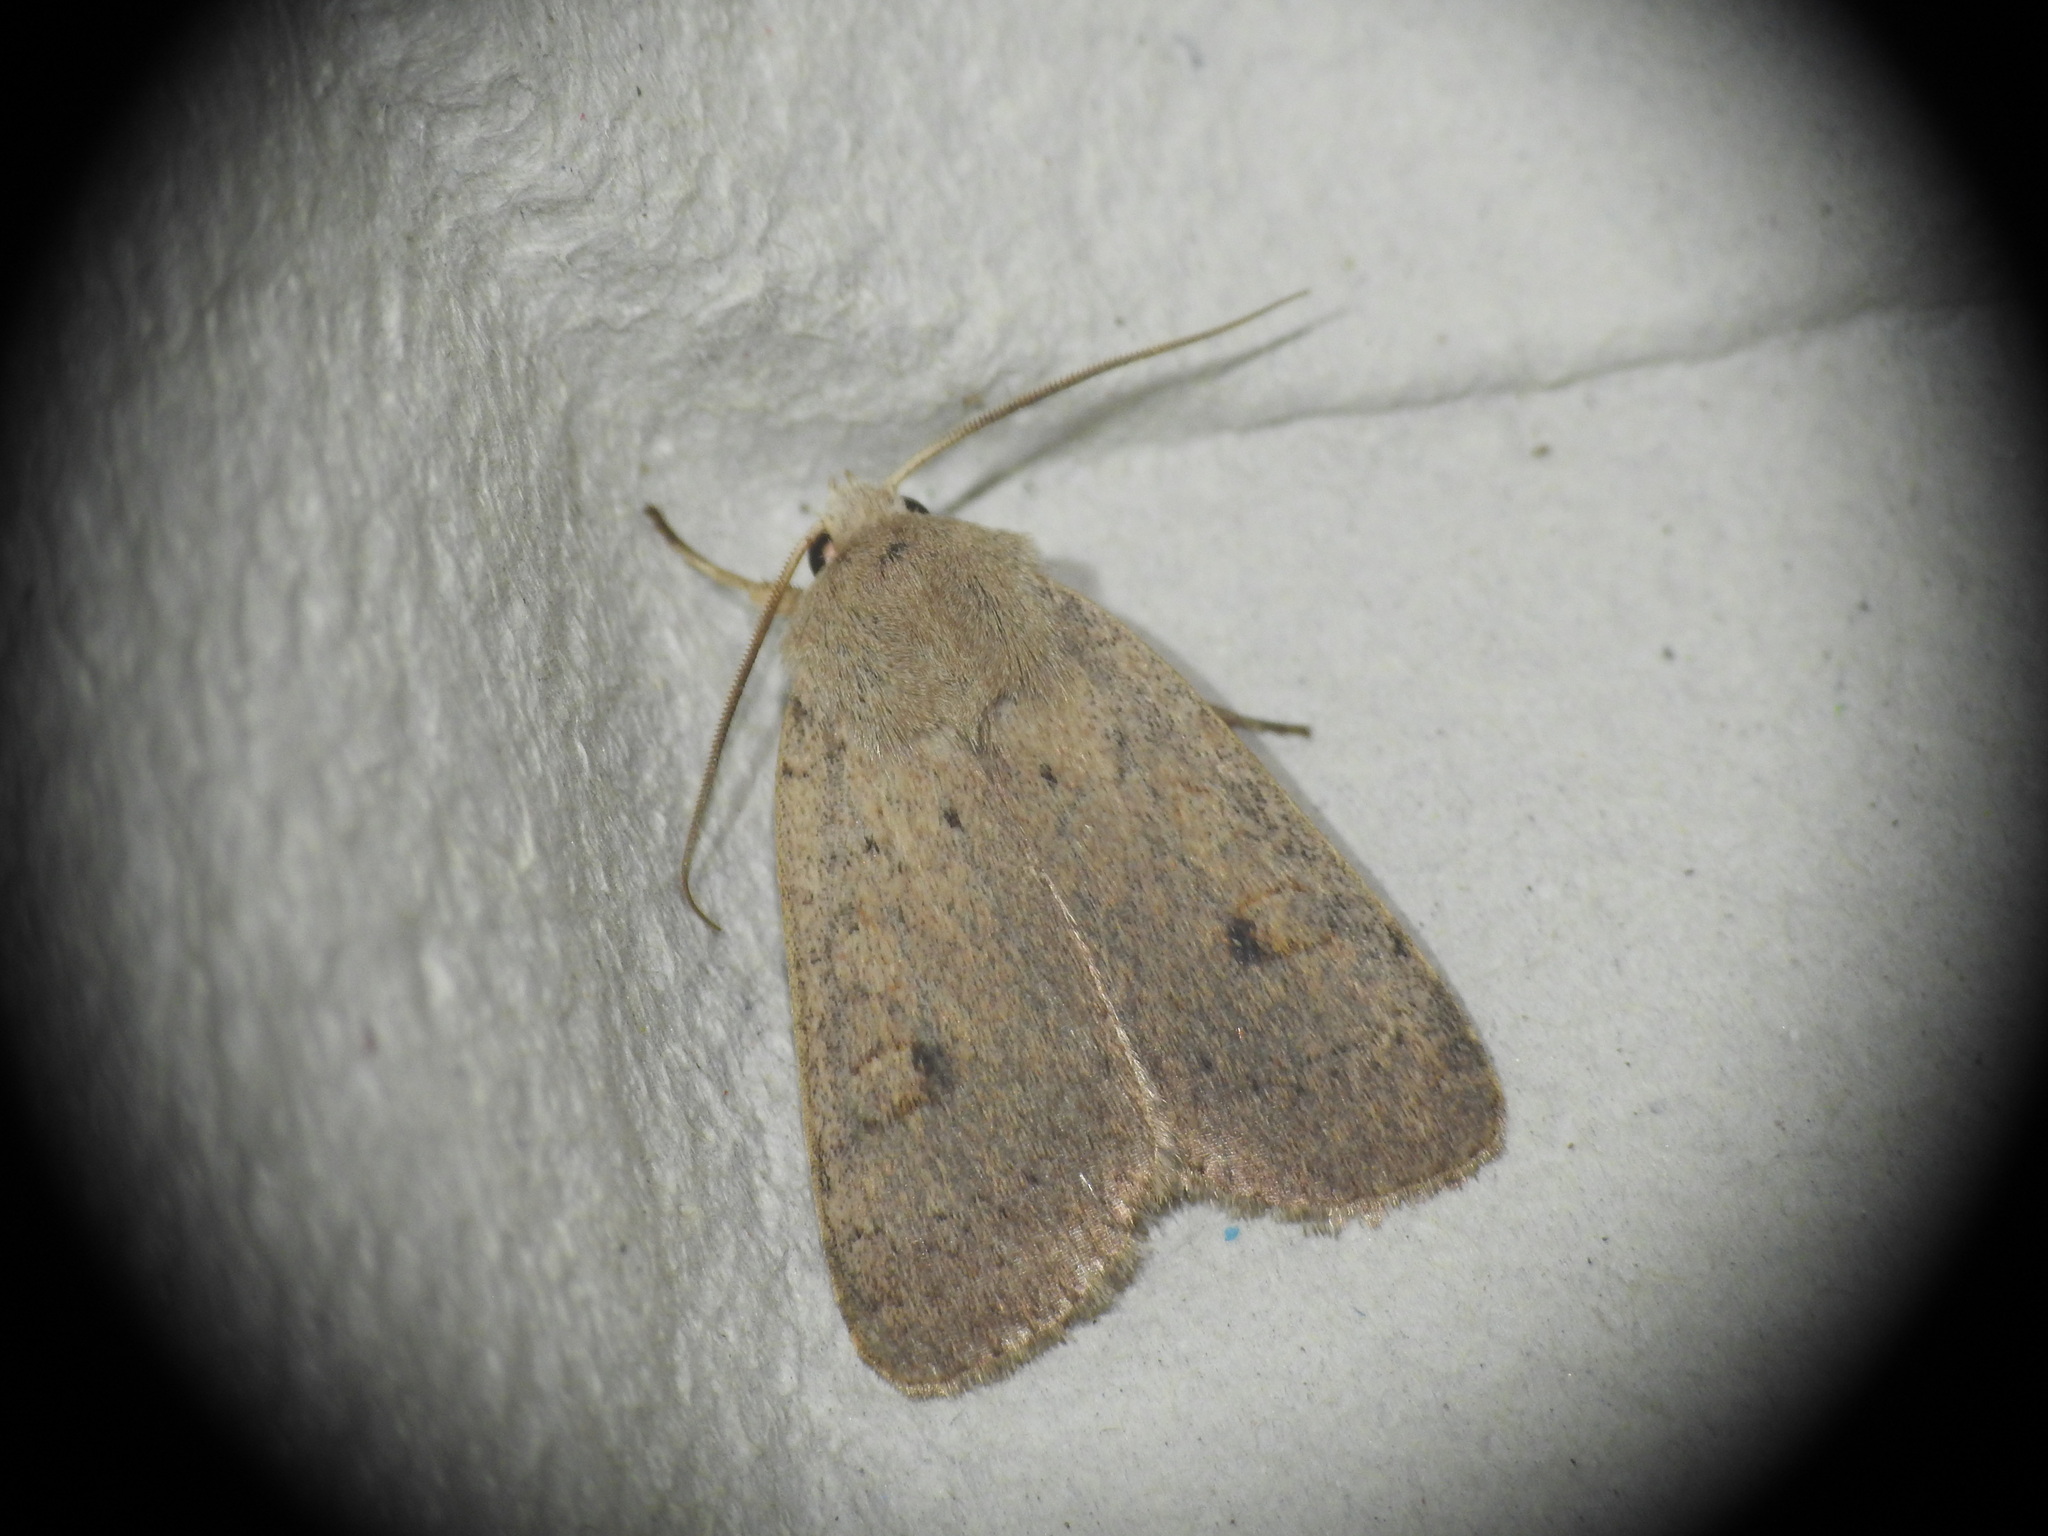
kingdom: Animalia
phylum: Arthropoda
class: Insecta
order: Lepidoptera
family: Noctuidae
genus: Xestia
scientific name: Xestia castanea
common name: Neglected rustic
